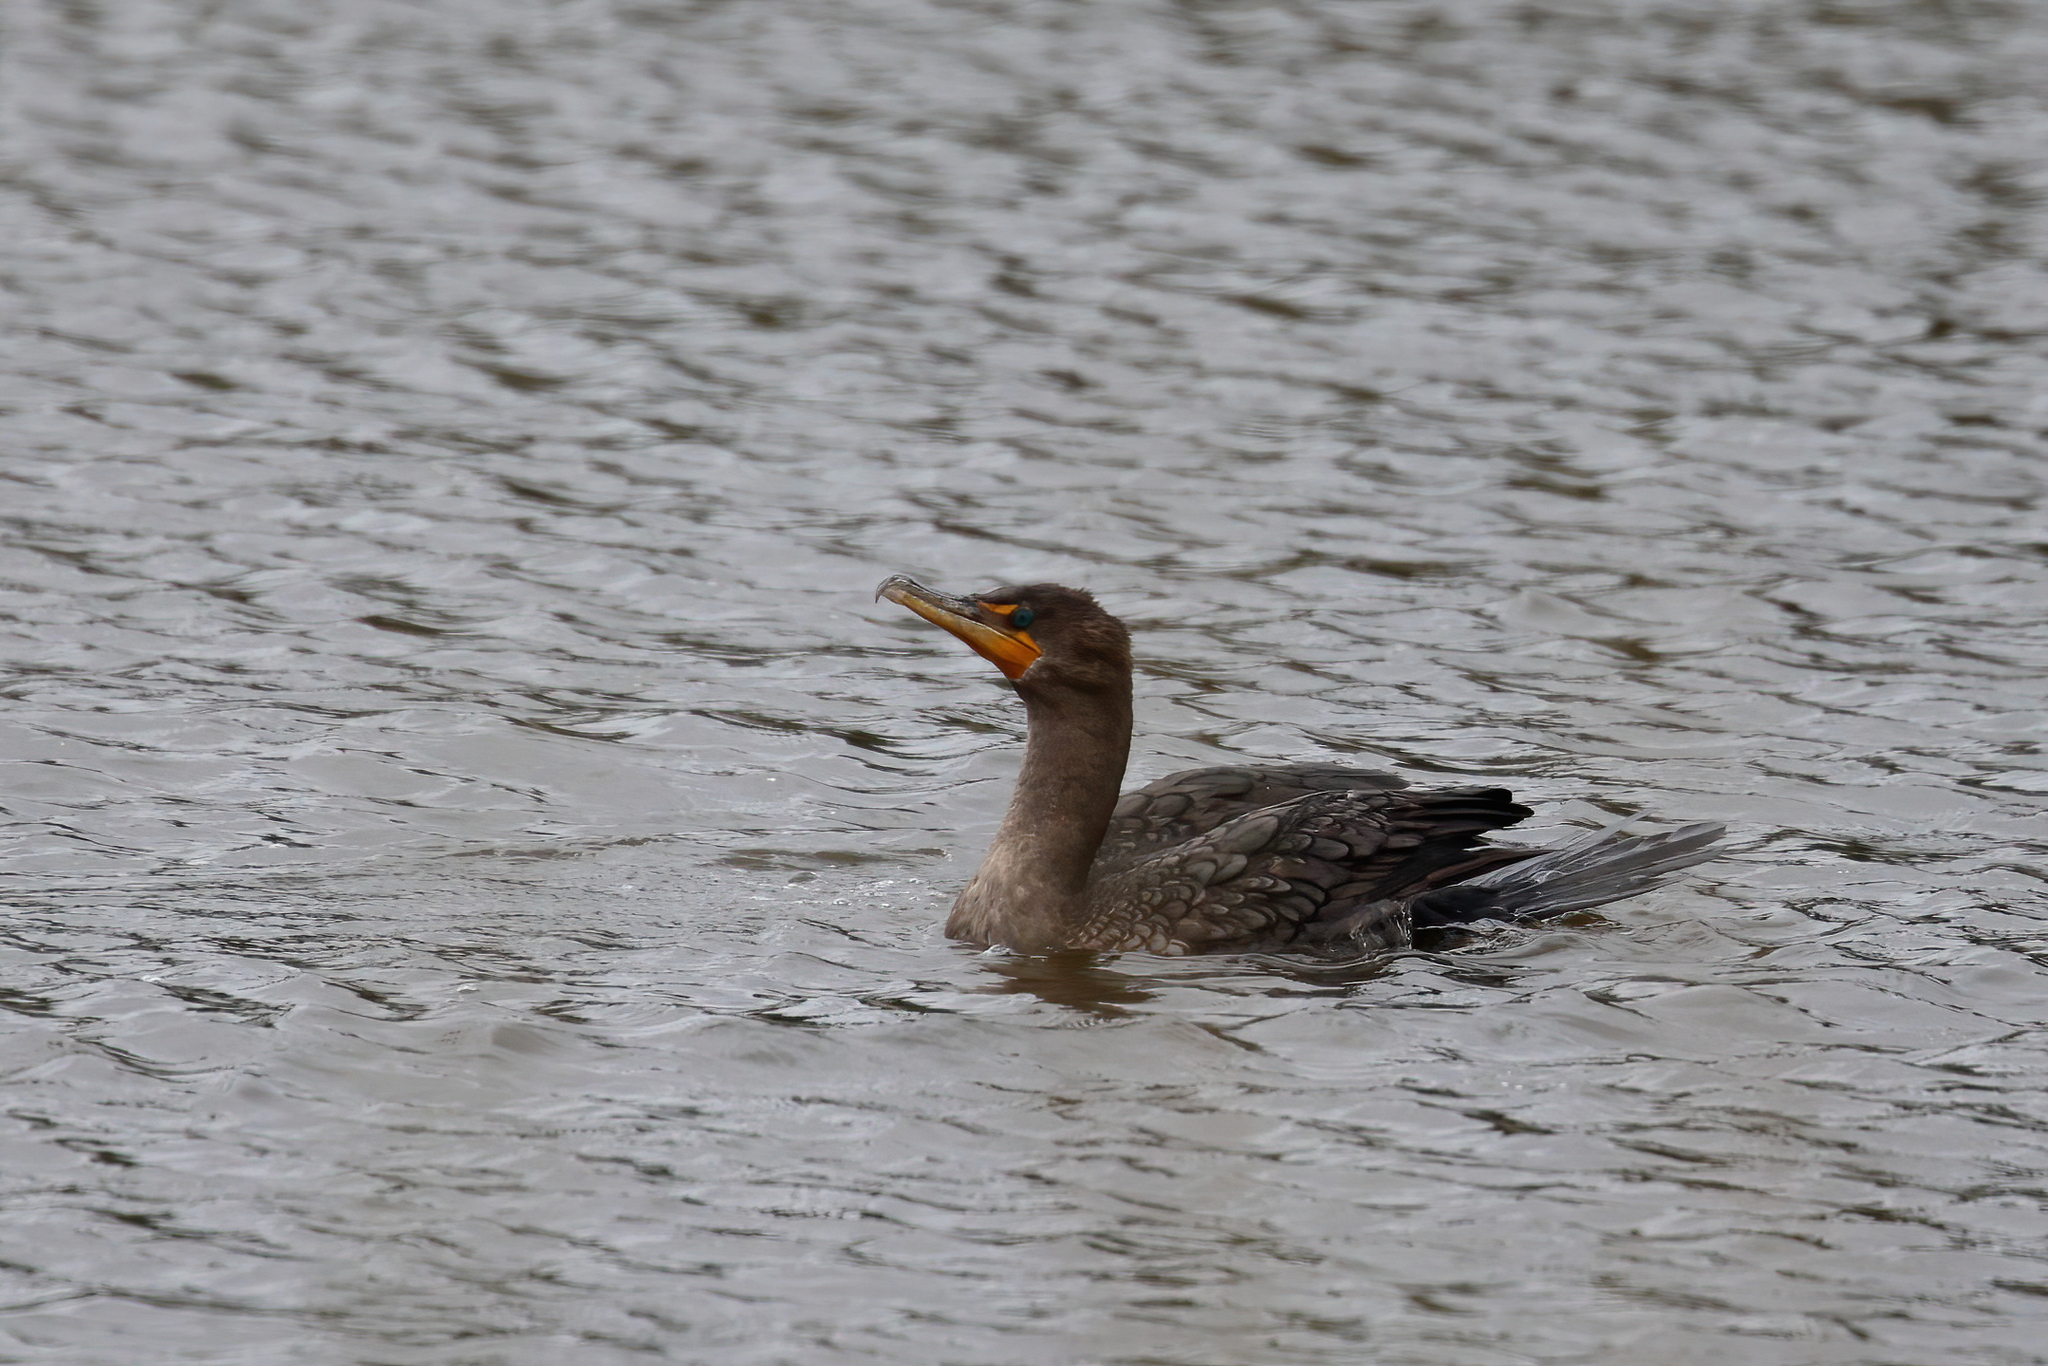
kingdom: Animalia
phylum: Chordata
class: Aves
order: Suliformes
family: Phalacrocoracidae
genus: Phalacrocorax
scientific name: Phalacrocorax auritus
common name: Double-crested cormorant
